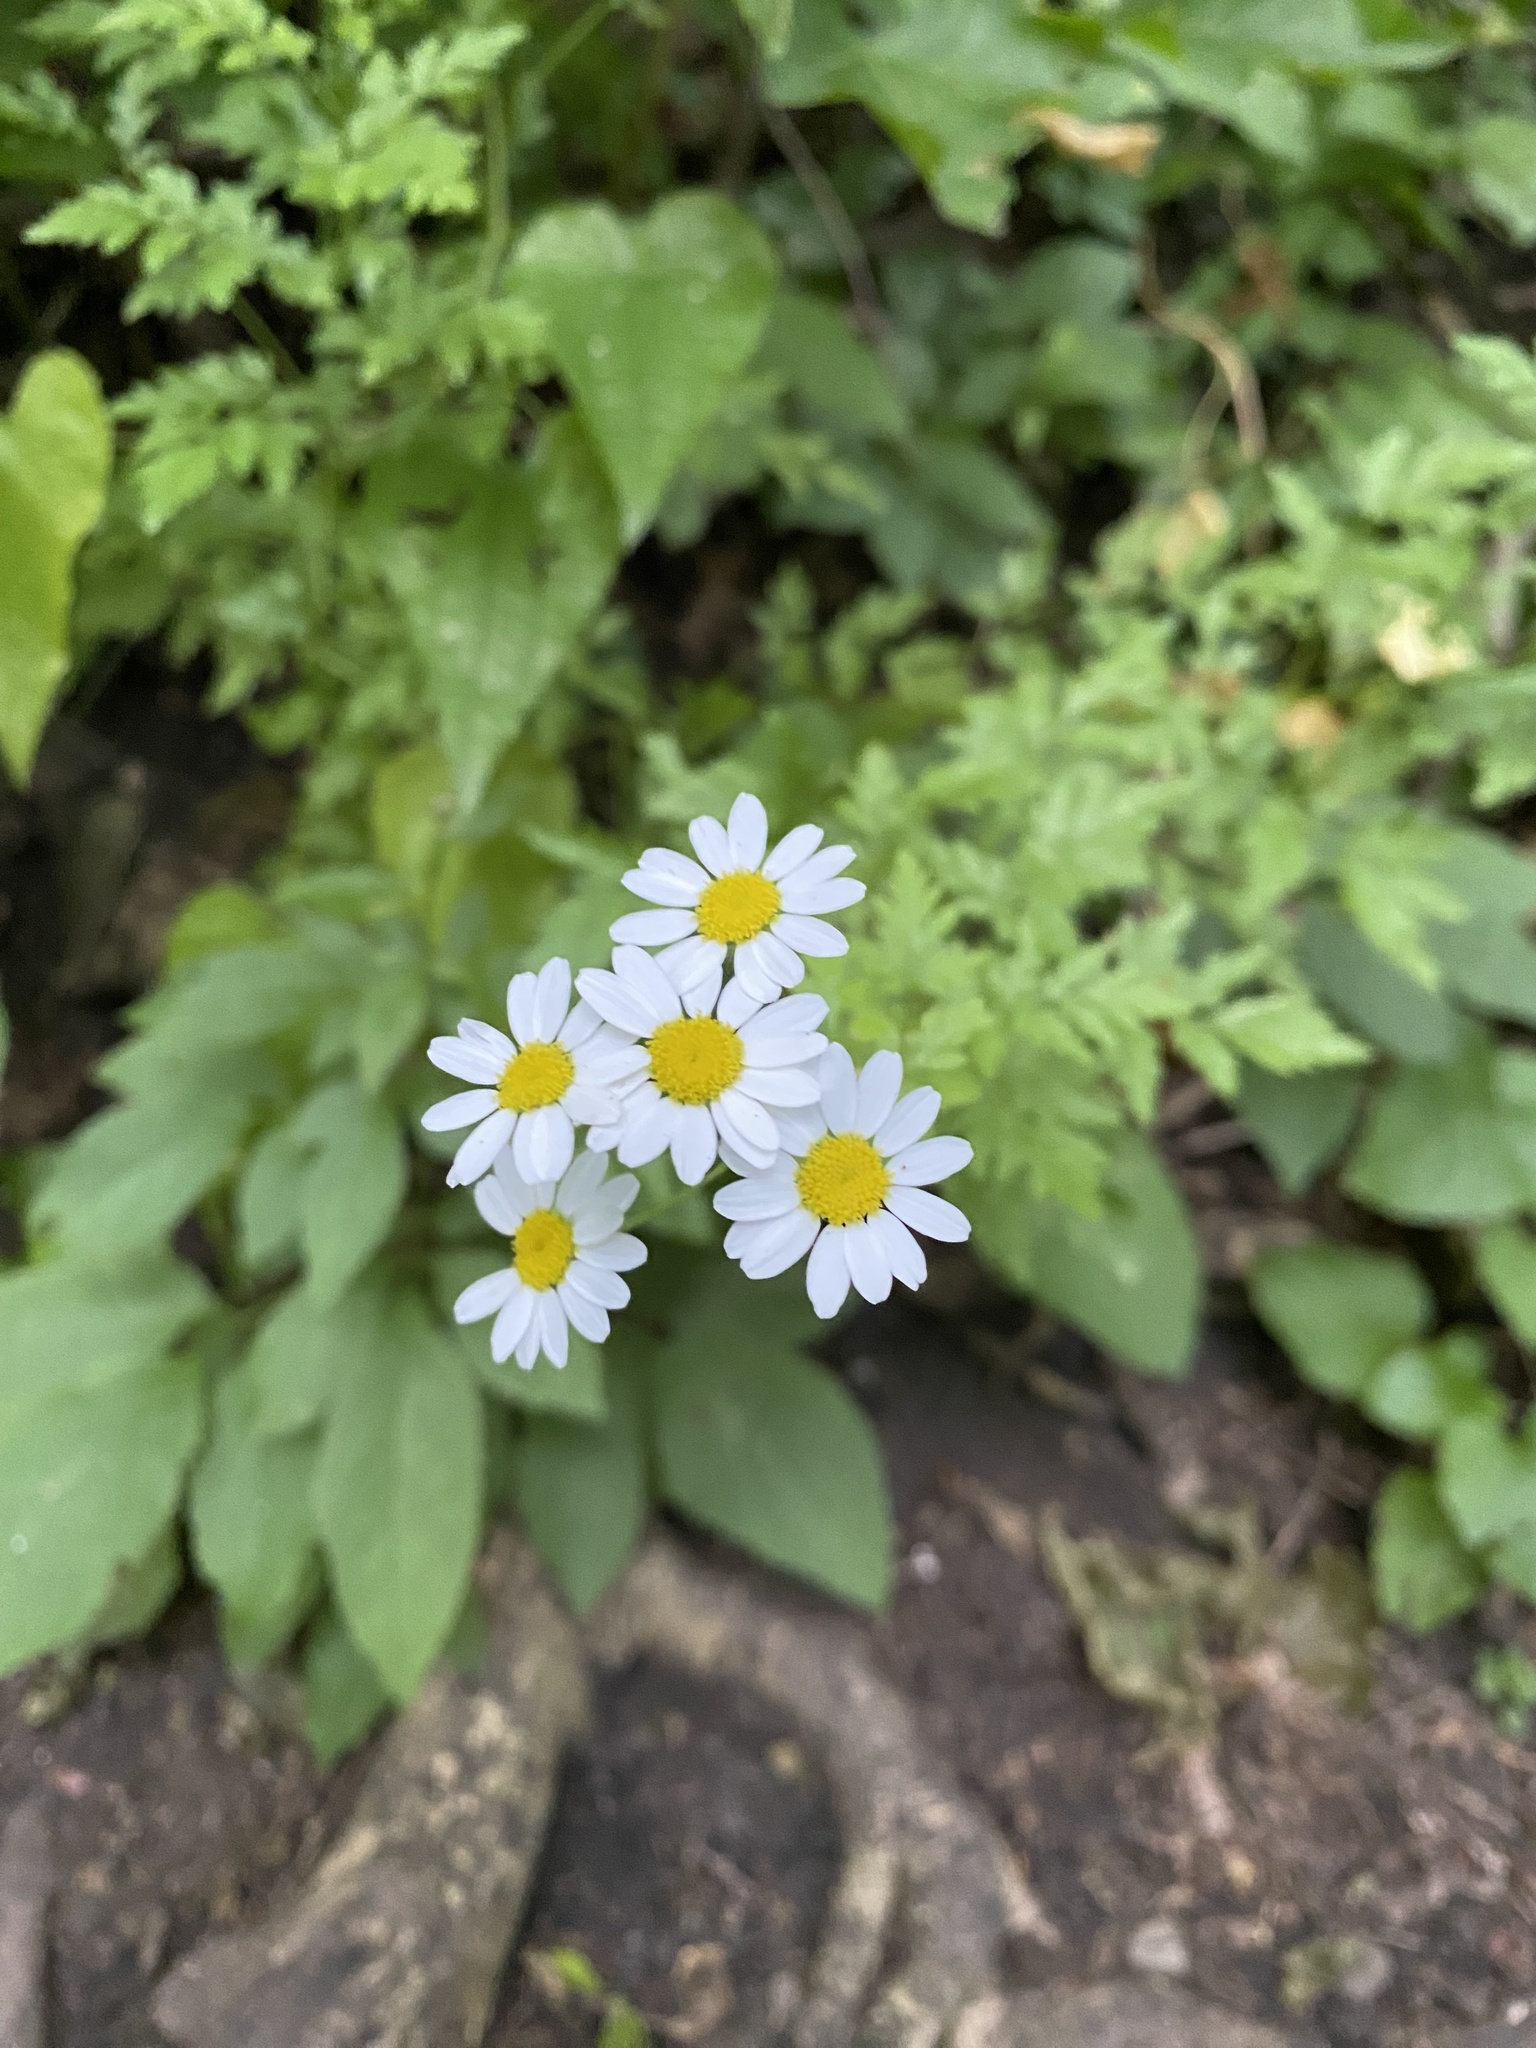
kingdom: Plantae
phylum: Tracheophyta
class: Magnoliopsida
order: Asterales
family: Asteraceae
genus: Tanacetum
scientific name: Tanacetum partheniifolium
